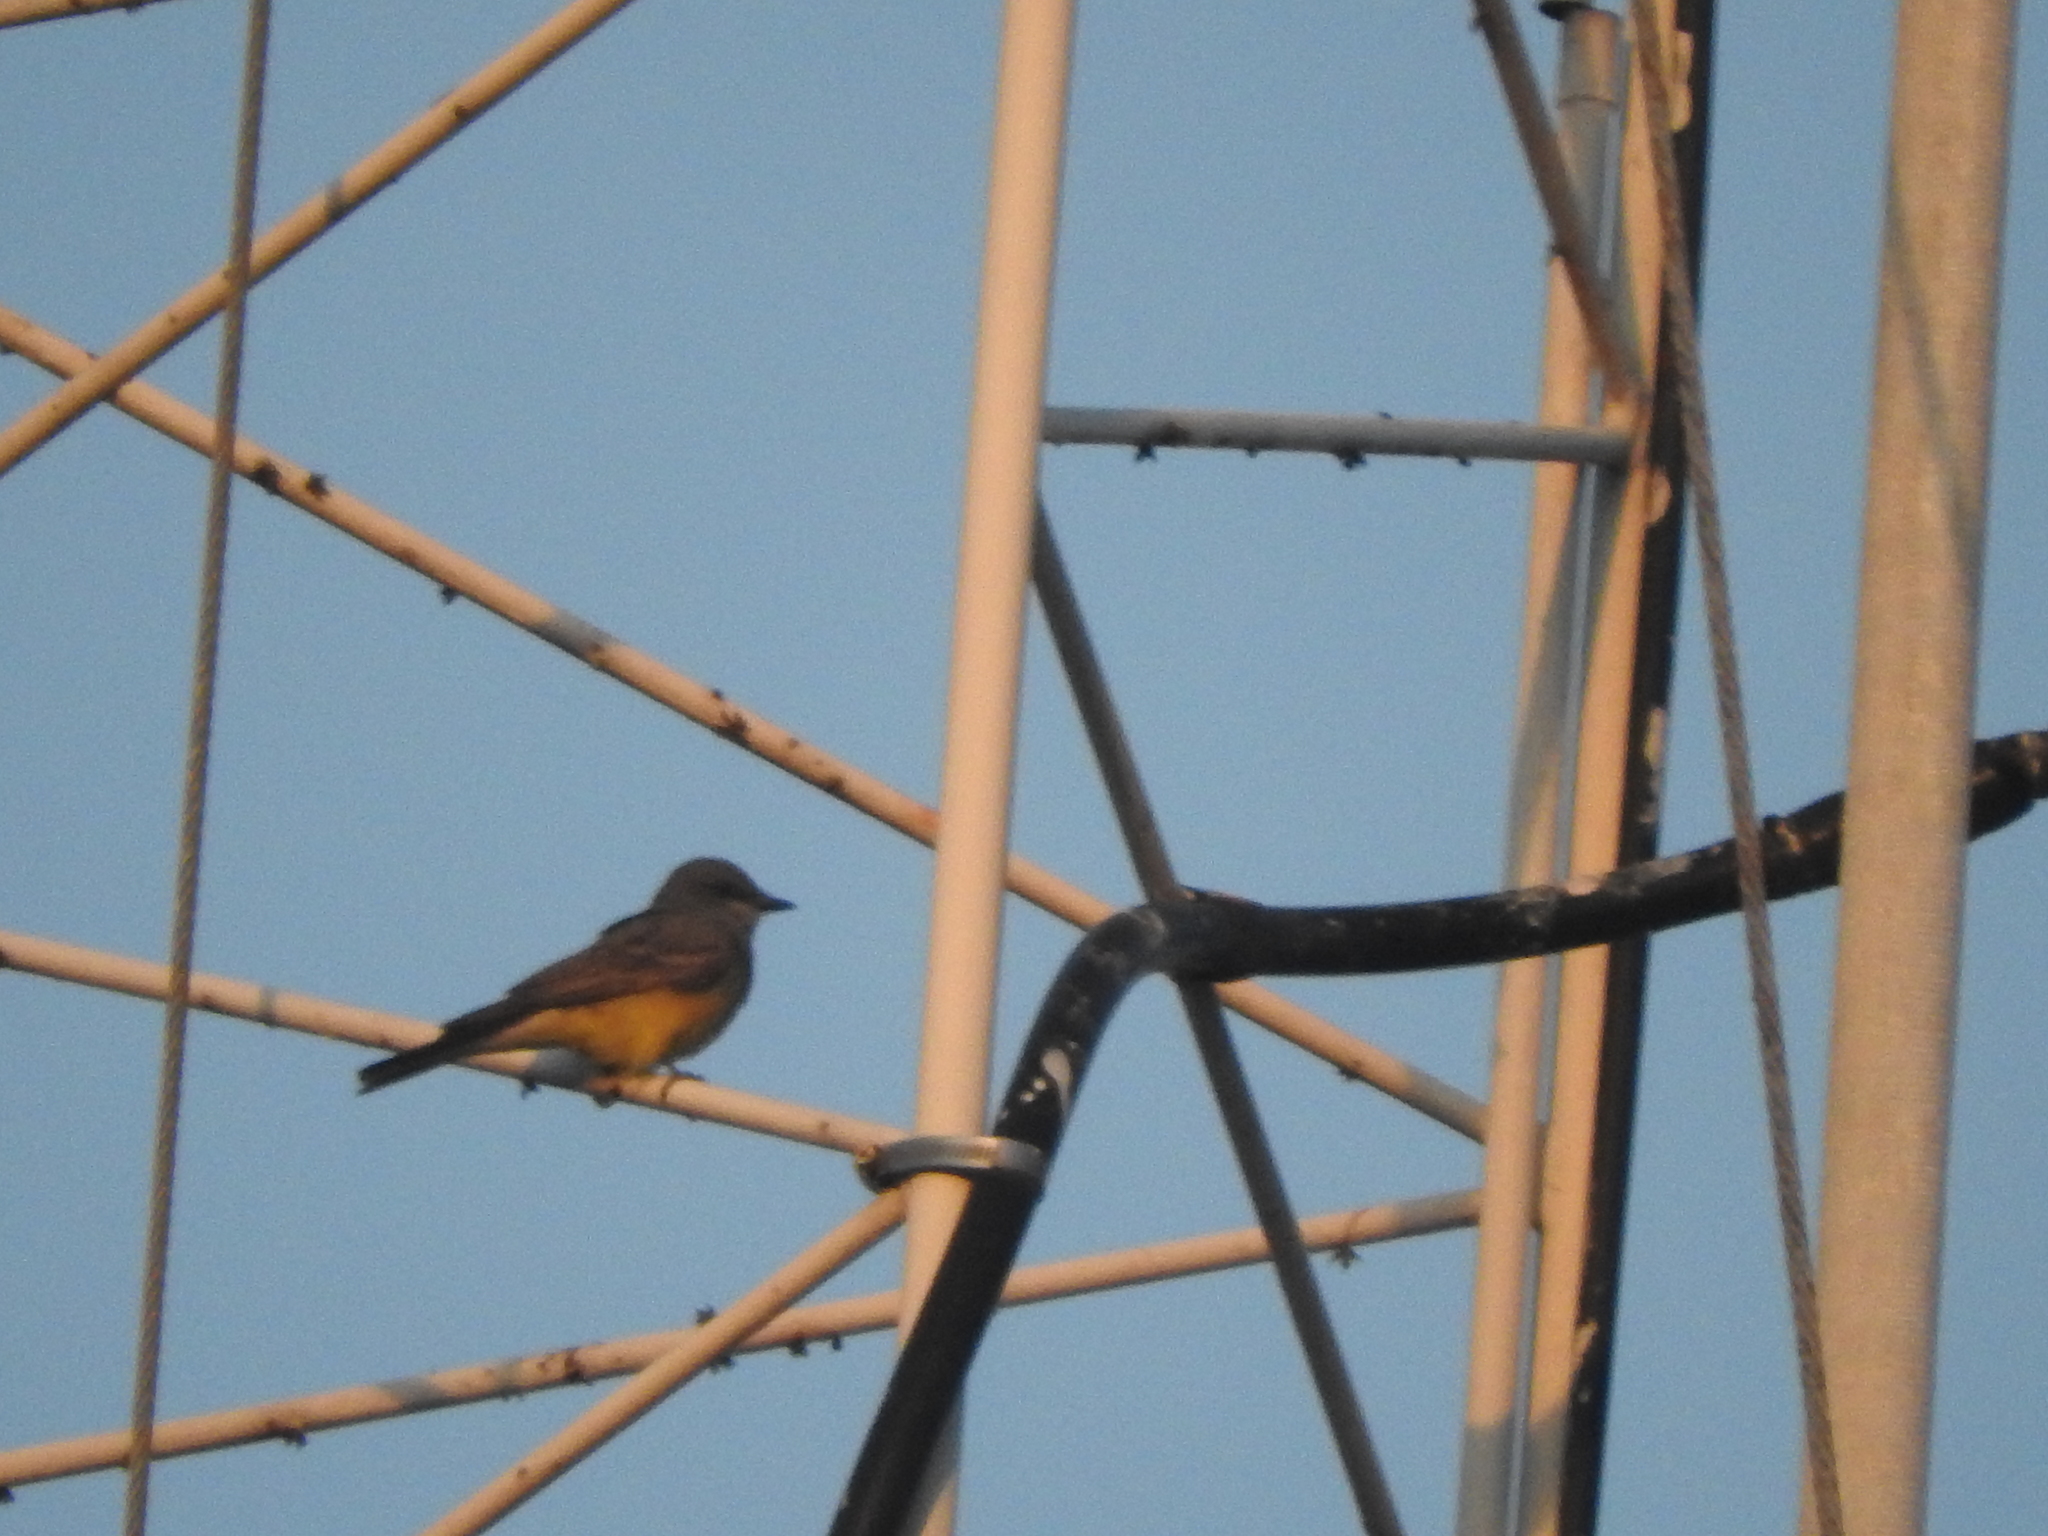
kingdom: Animalia
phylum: Chordata
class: Aves
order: Passeriformes
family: Tyrannidae
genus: Tyrannus
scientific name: Tyrannus vociferans
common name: Cassin's kingbird
